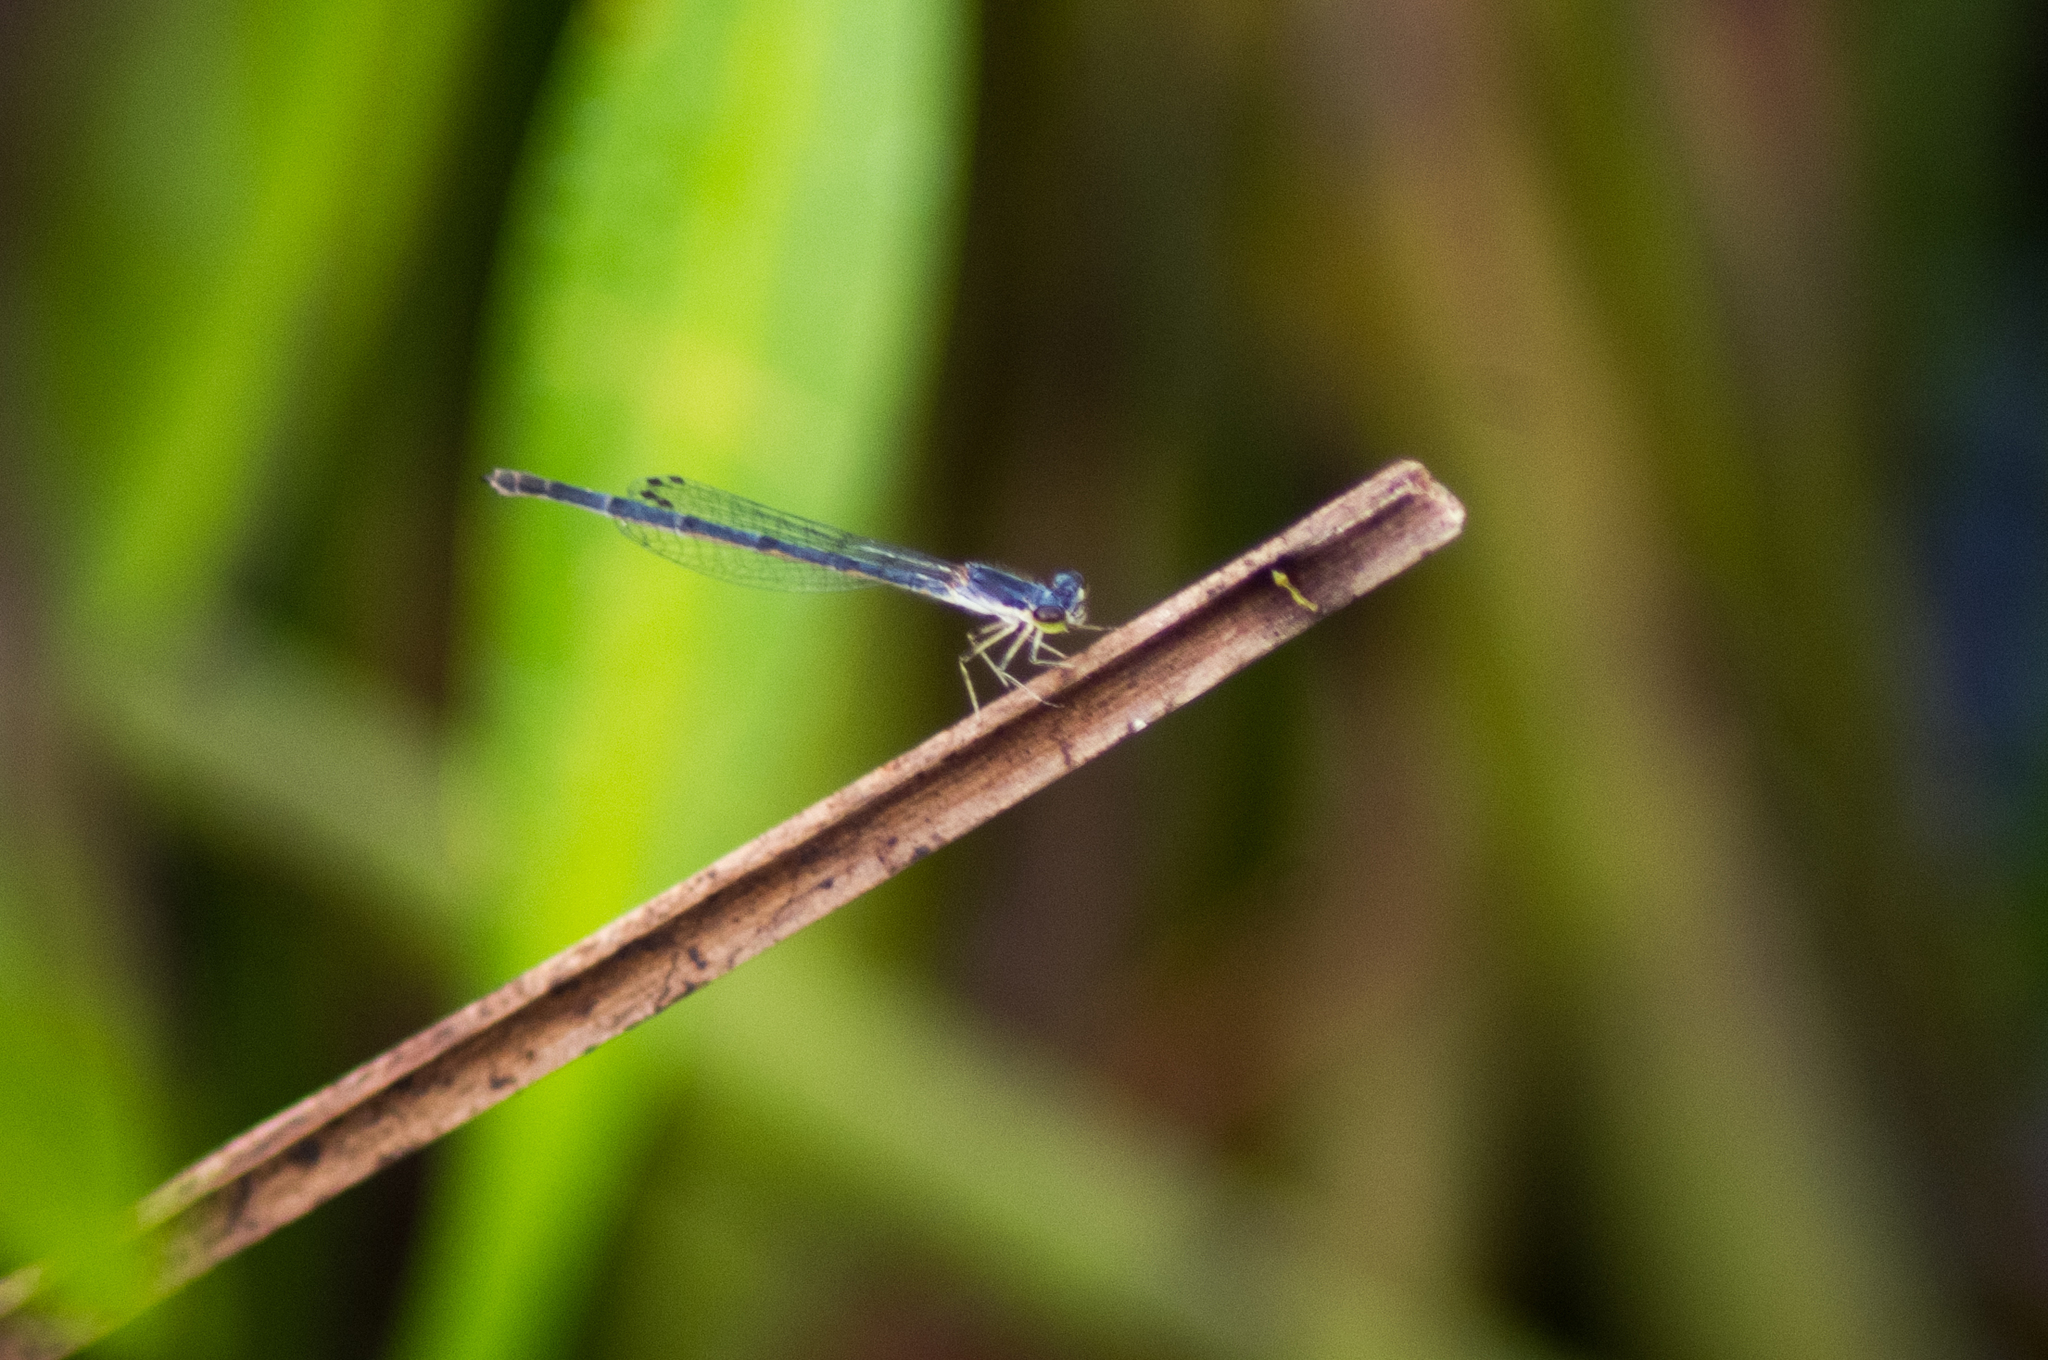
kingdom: Animalia
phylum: Arthropoda
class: Insecta
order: Odonata
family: Coenagrionidae
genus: Ischnura
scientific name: Ischnura posita
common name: Fragile forktail
